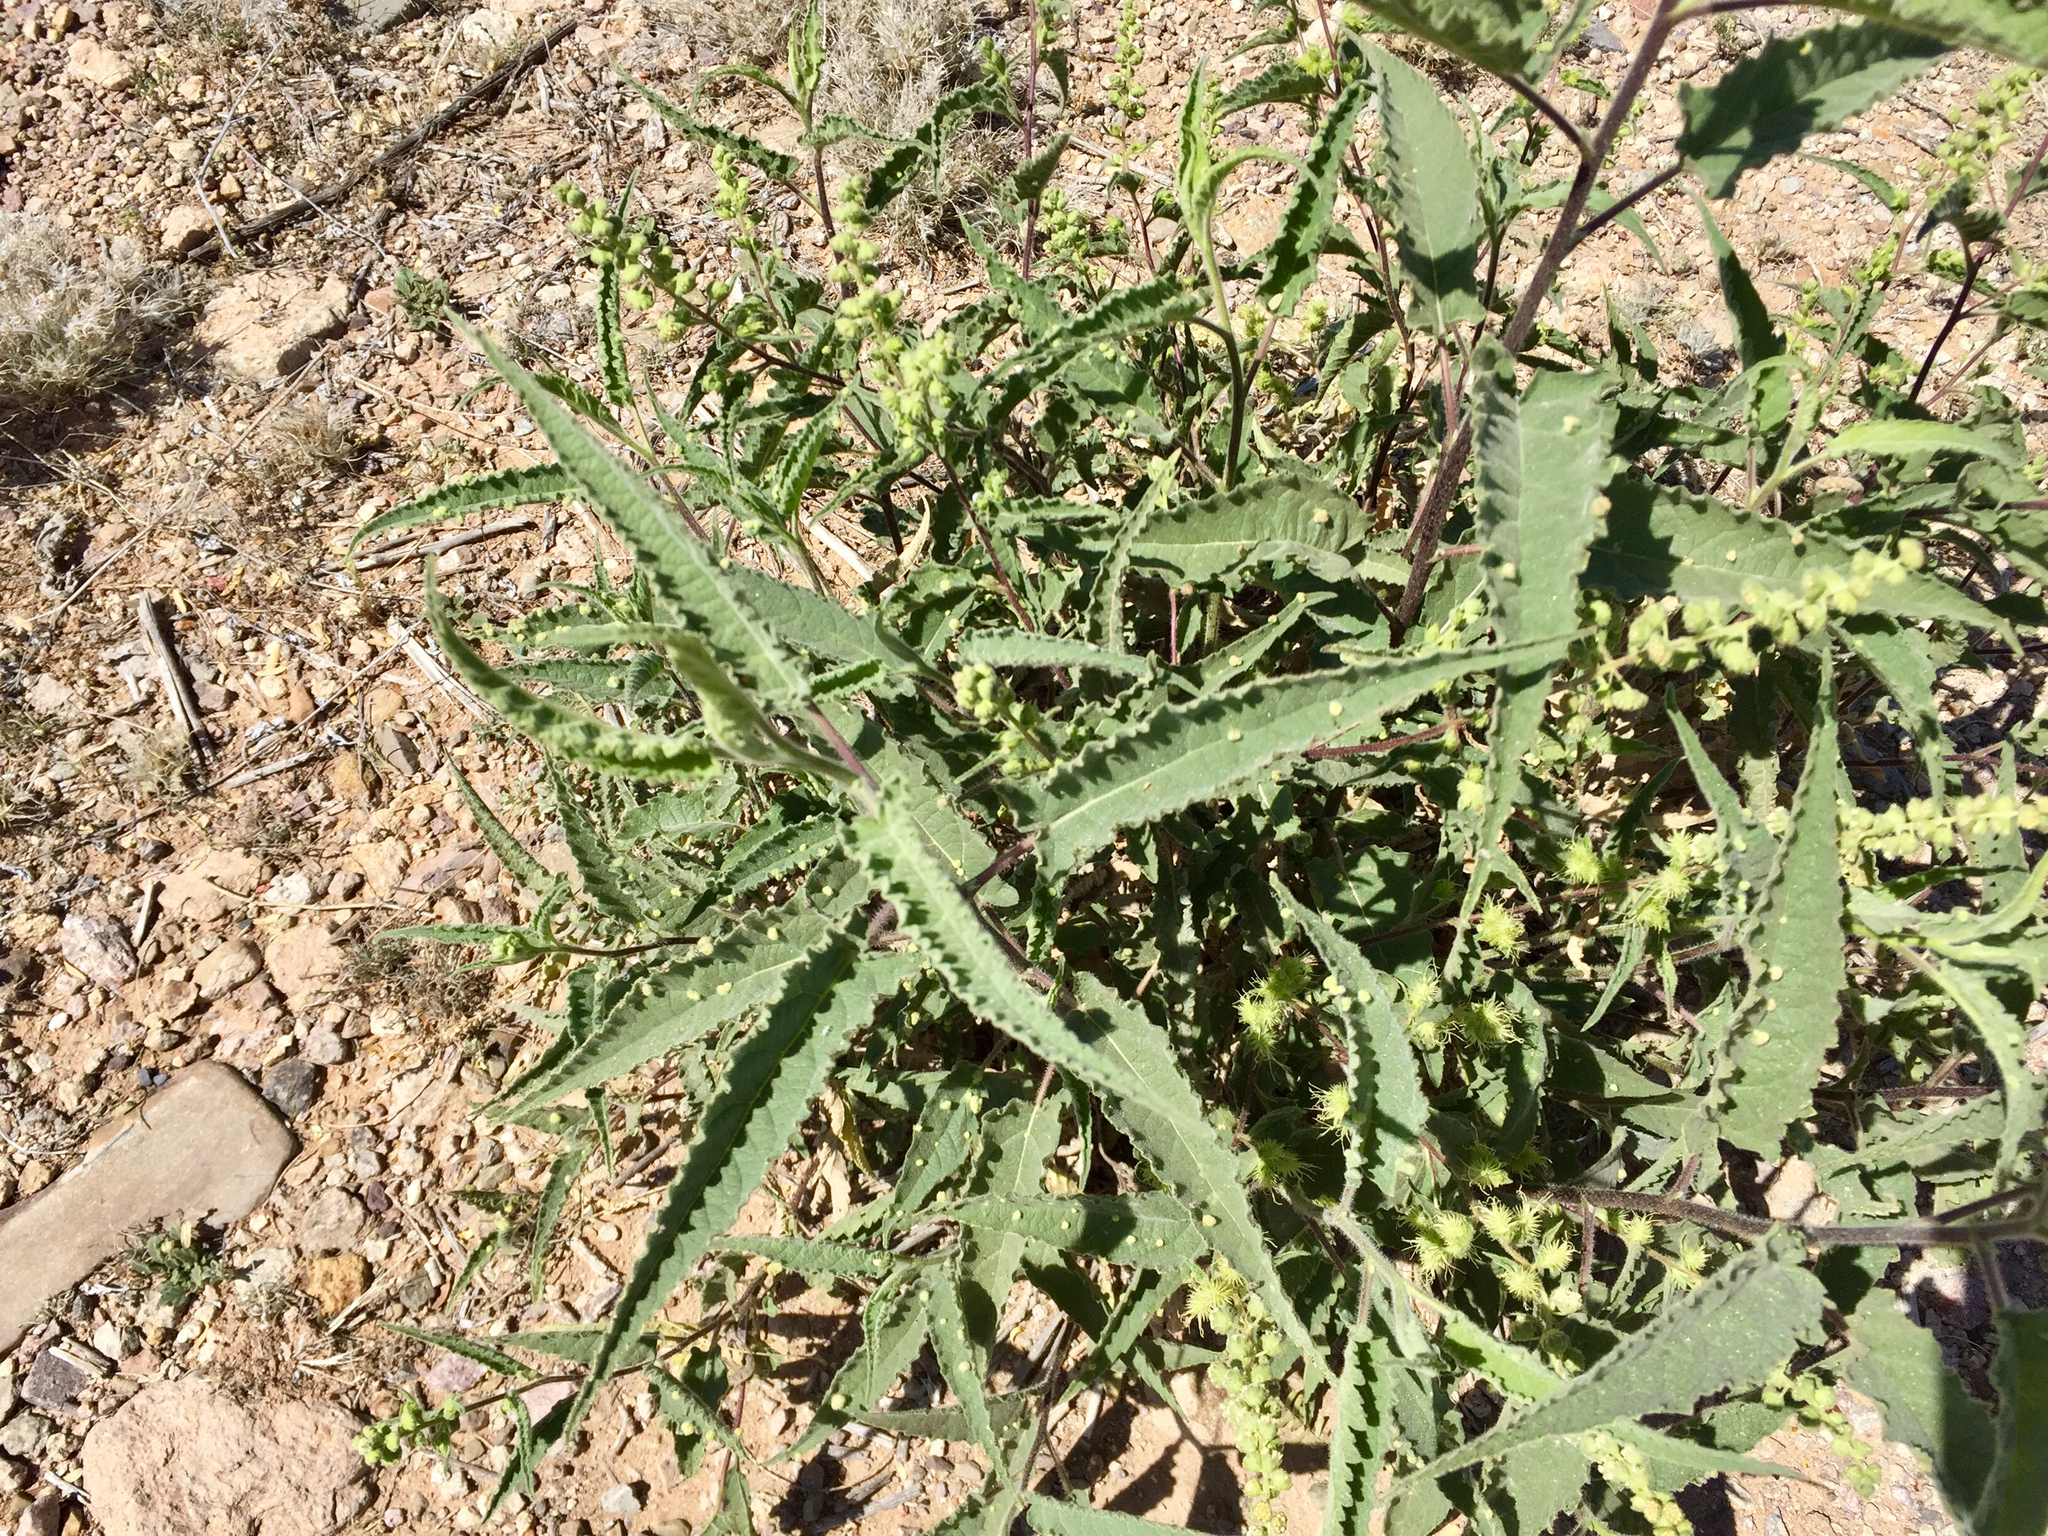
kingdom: Plantae
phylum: Tracheophyta
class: Magnoliopsida
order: Asterales
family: Asteraceae
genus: Ambrosia
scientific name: Ambrosia ambrosioides
